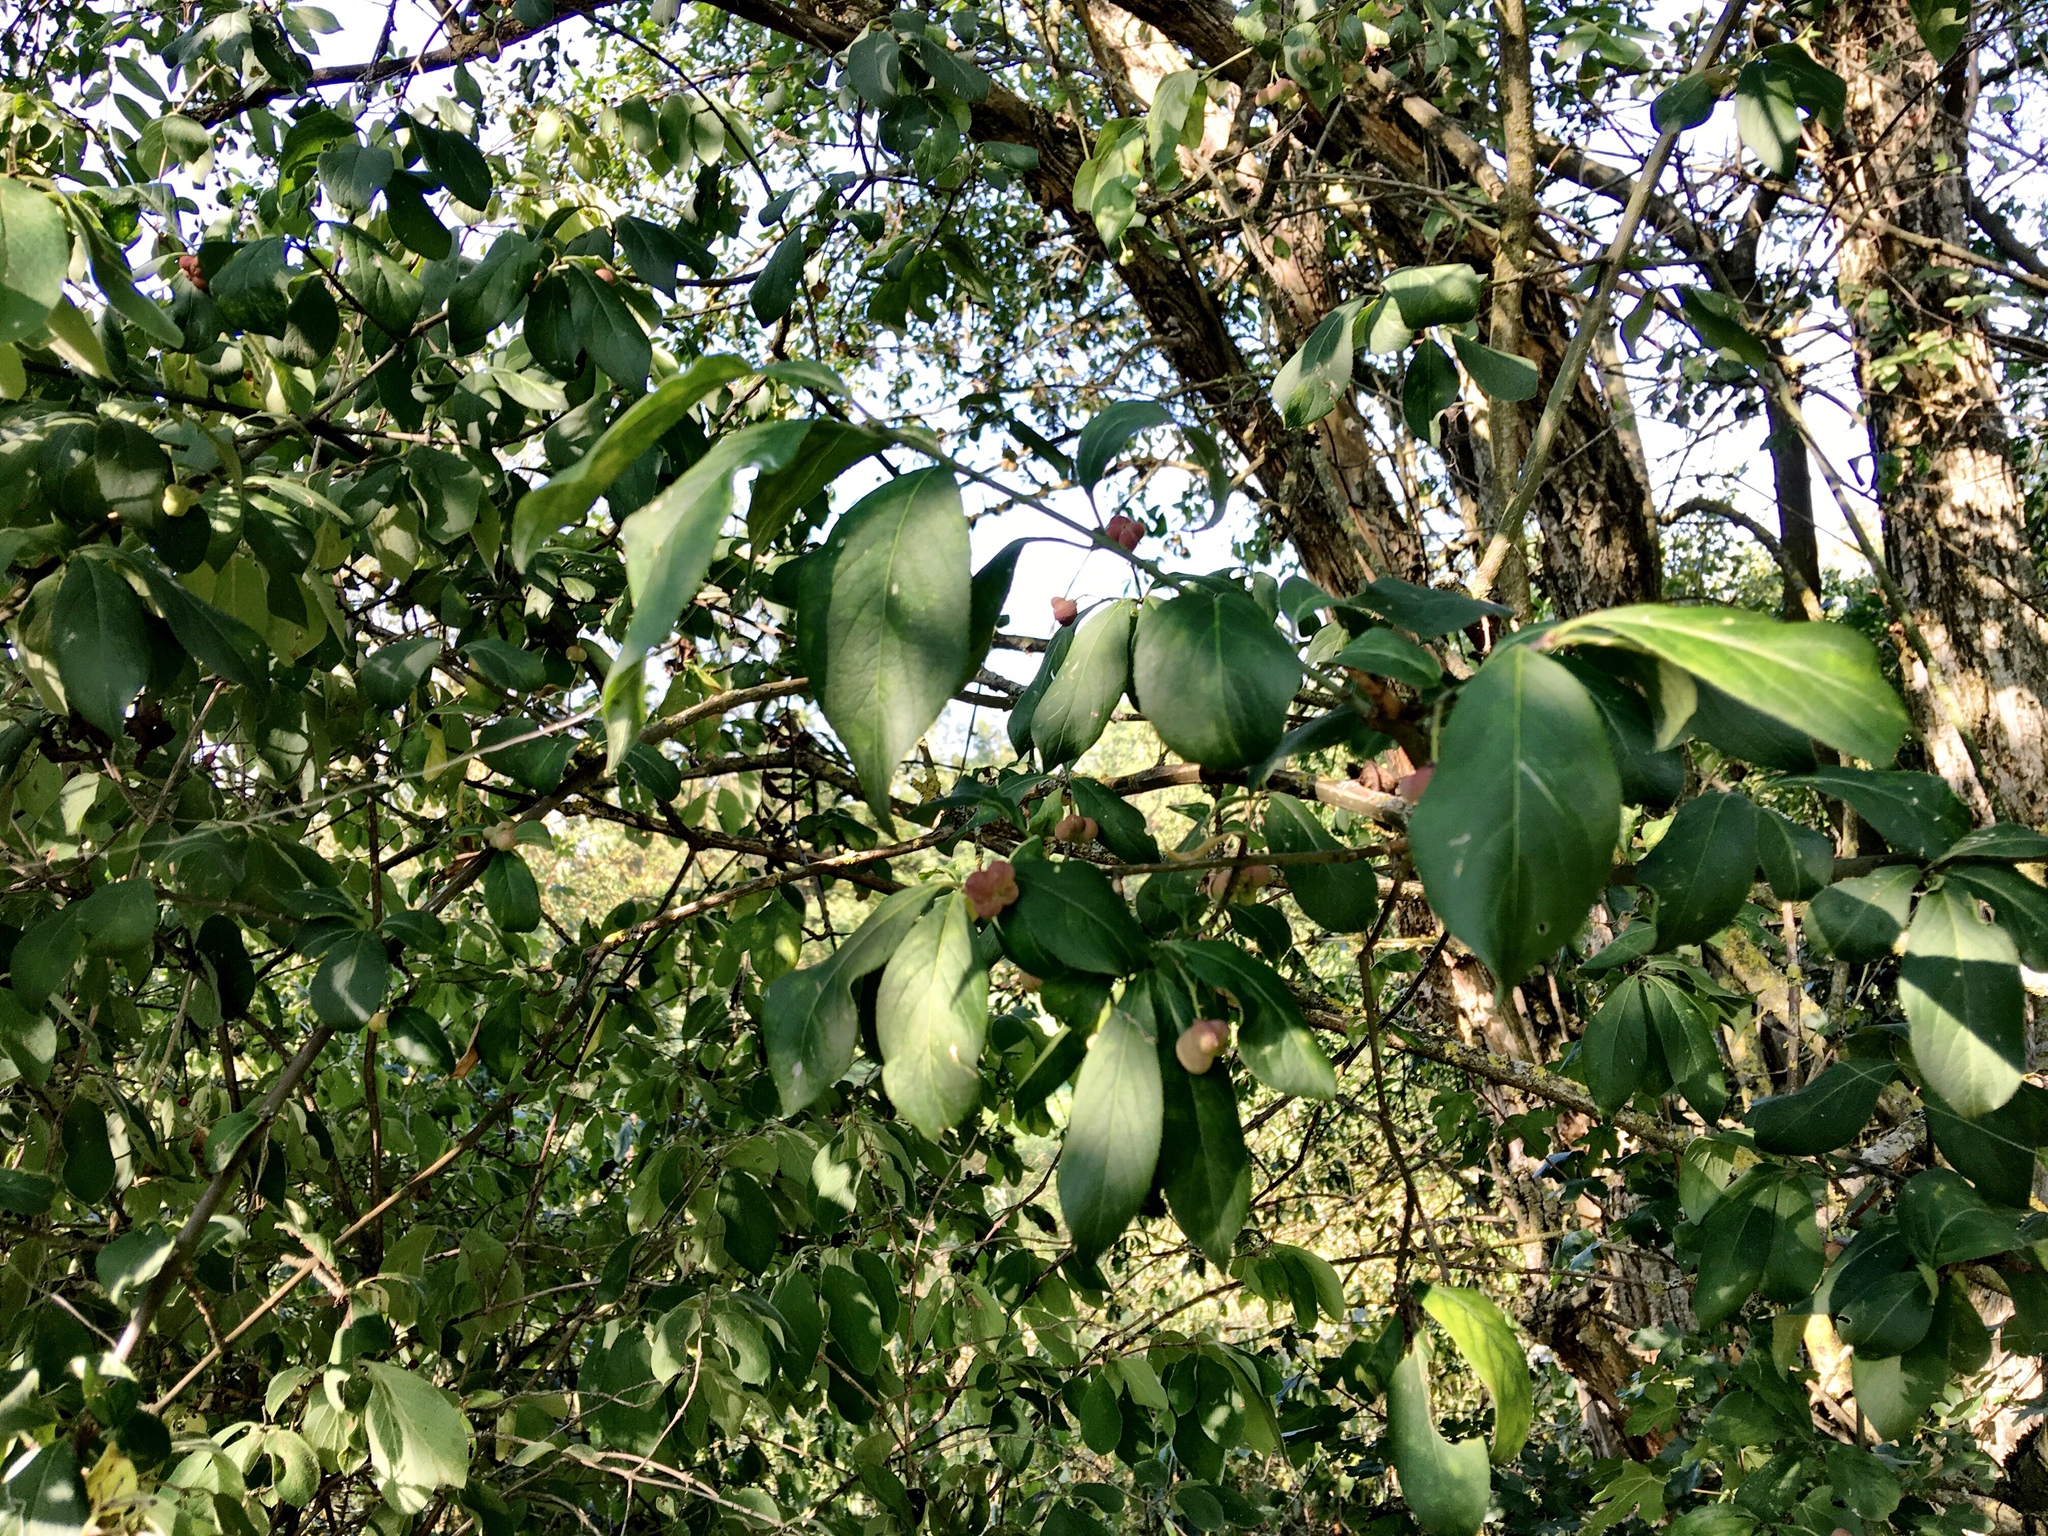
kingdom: Plantae
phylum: Tracheophyta
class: Magnoliopsida
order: Celastrales
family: Celastraceae
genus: Euonymus
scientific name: Euonymus europaeus
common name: Spindle
